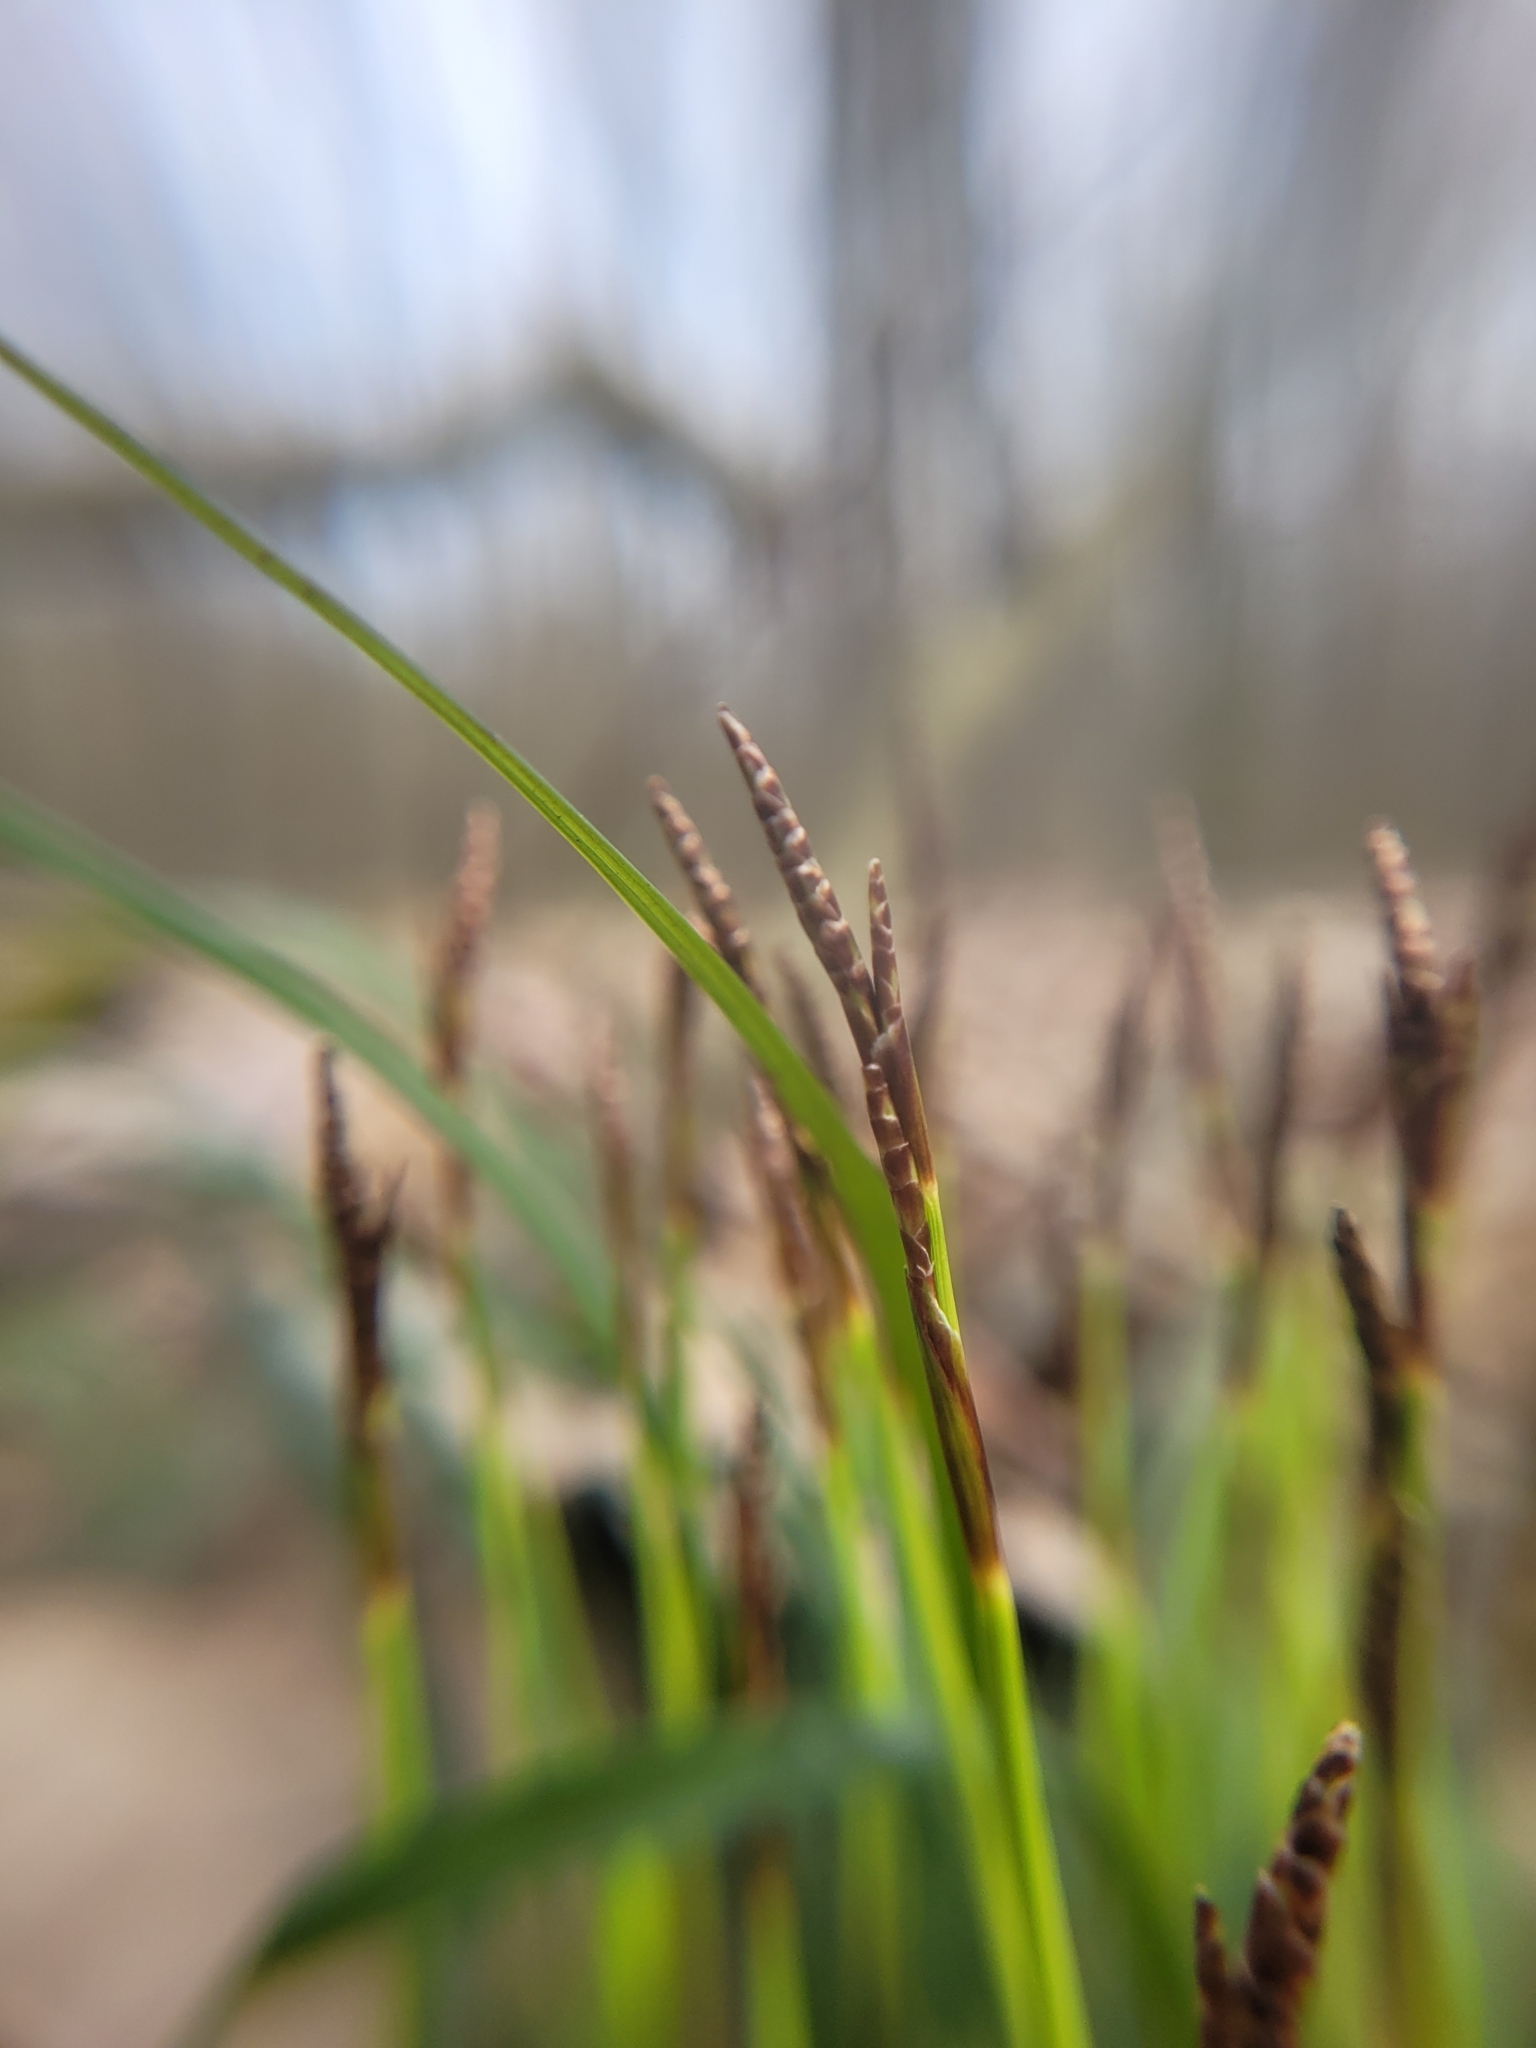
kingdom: Plantae
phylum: Tracheophyta
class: Liliopsida
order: Poales
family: Cyperaceae
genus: Carex
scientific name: Carex digitata
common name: Fingered sedge
